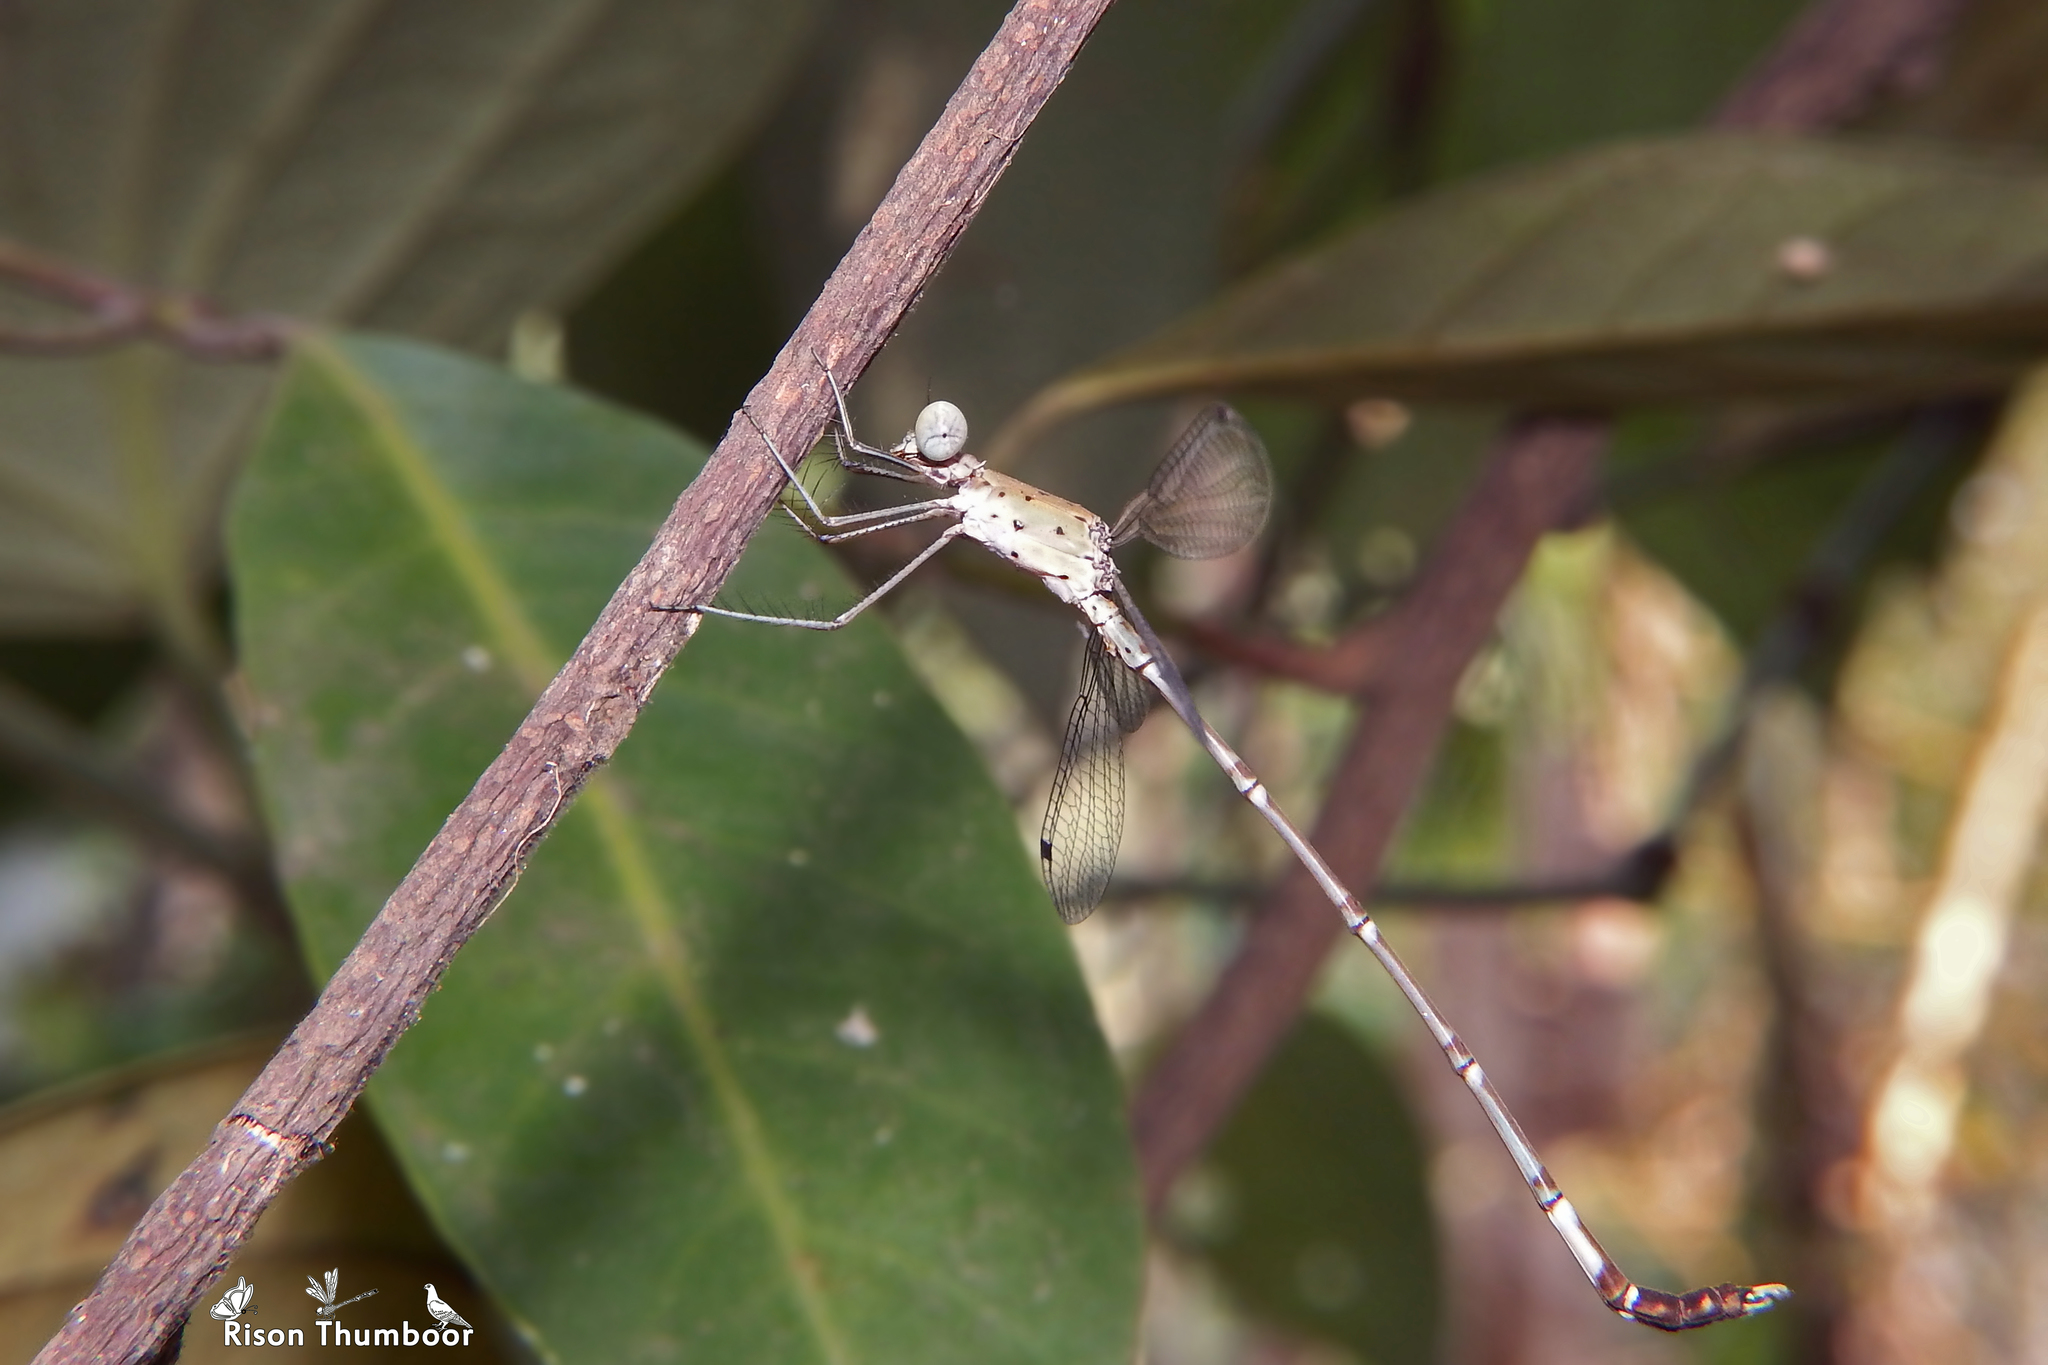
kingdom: Animalia
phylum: Arthropoda
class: Insecta
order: Odonata
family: Lestidae
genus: Platylestes
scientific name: Platylestes platystylus
